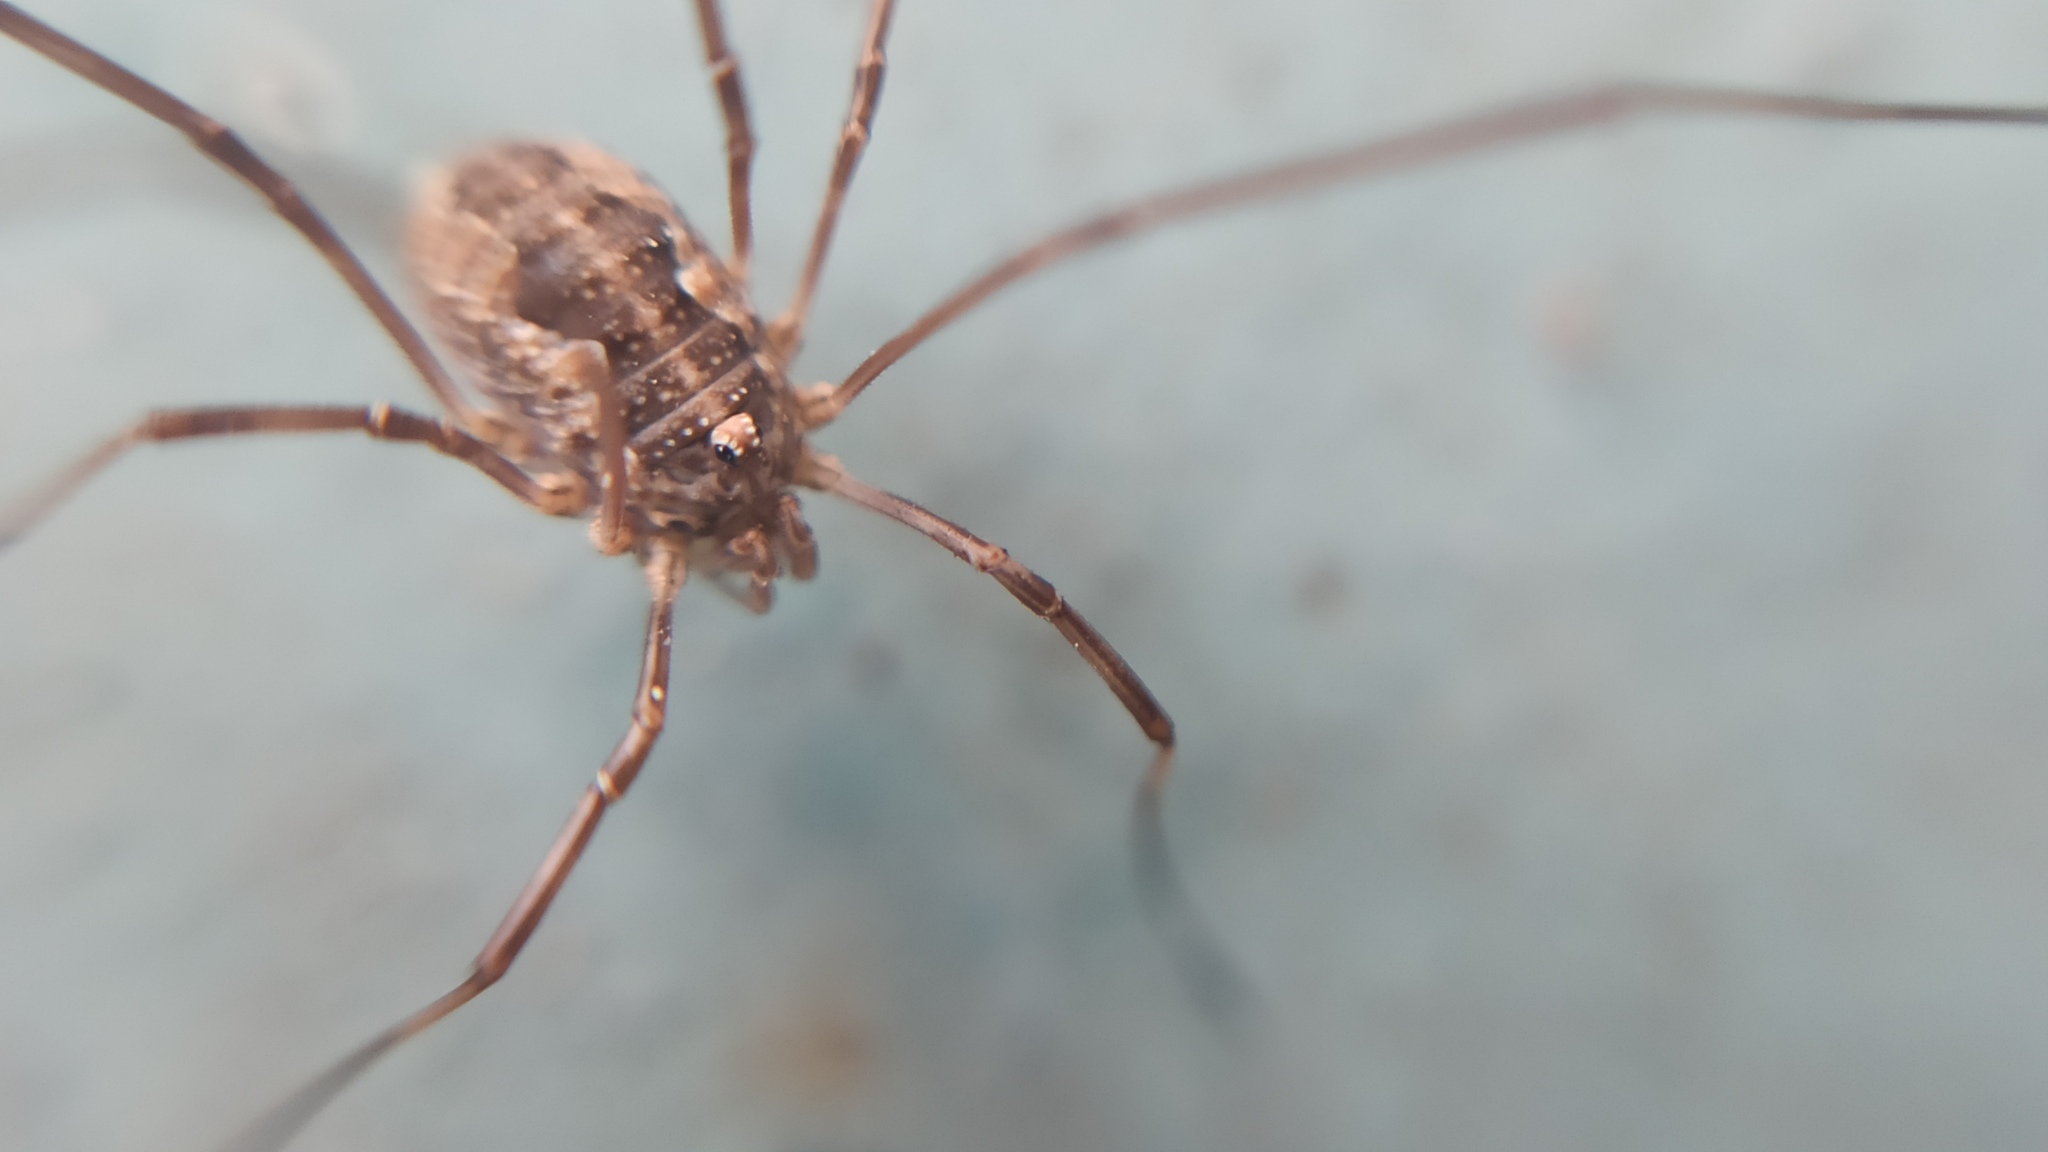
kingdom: Animalia
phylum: Arthropoda
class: Arachnida
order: Opiliones
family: Phalangiidae
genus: Phalangium
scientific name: Phalangium opilio
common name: Daddy longleg
